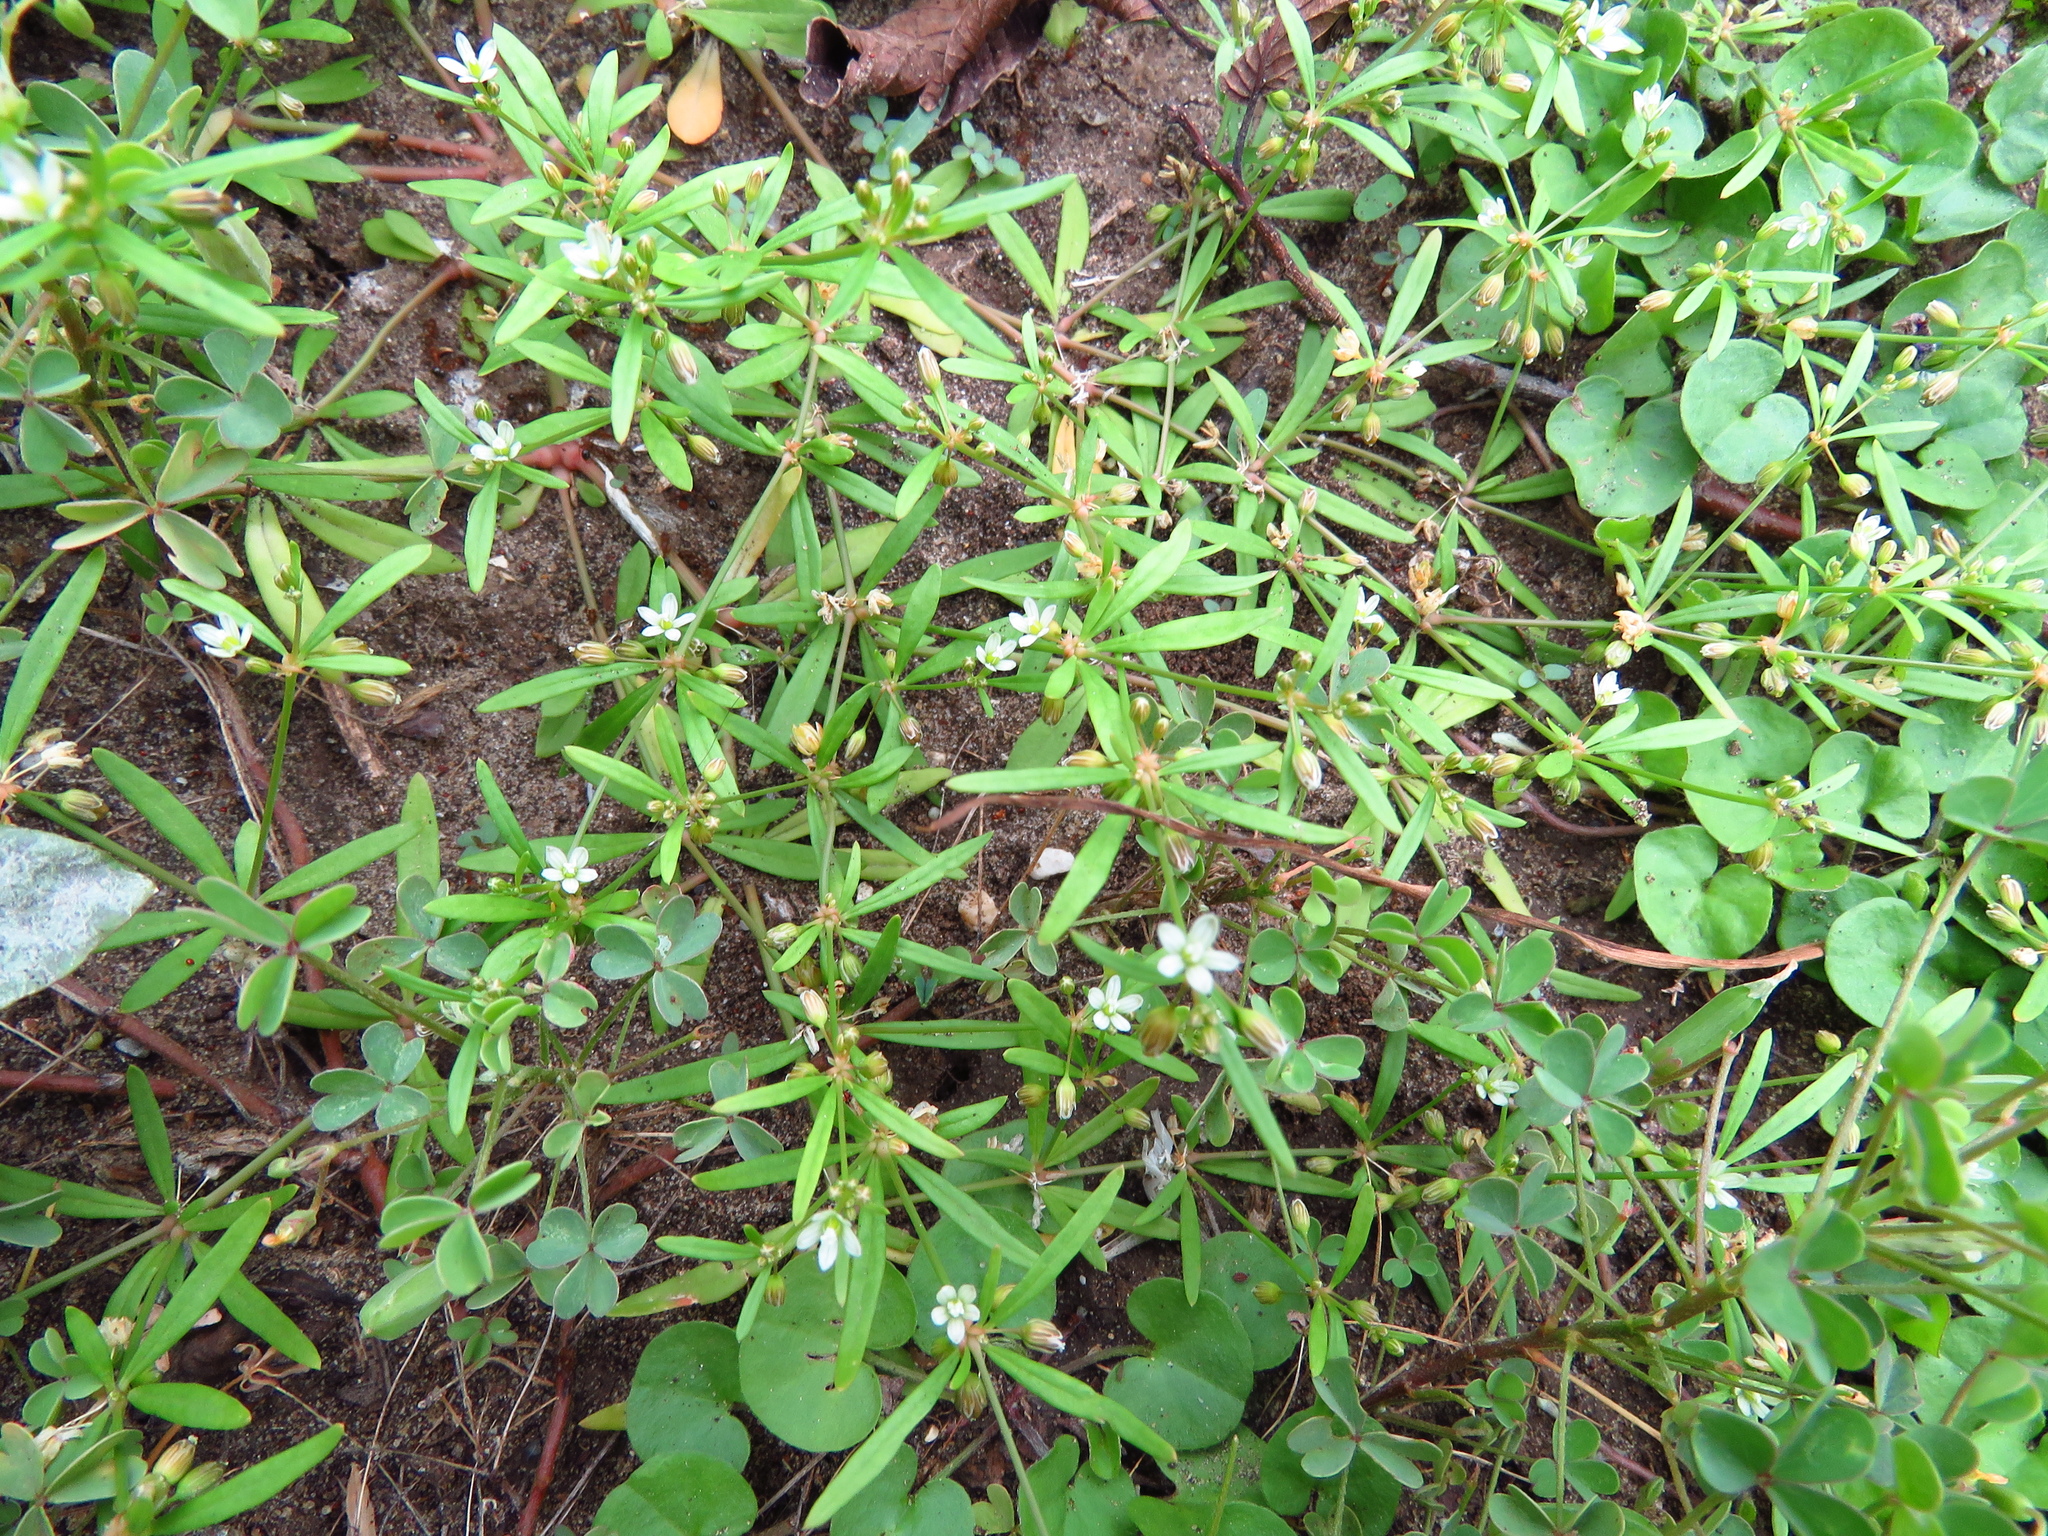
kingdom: Plantae
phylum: Tracheophyta
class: Magnoliopsida
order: Caryophyllales
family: Molluginaceae
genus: Mollugo
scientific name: Mollugo verticillata
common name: Green carpetweed
